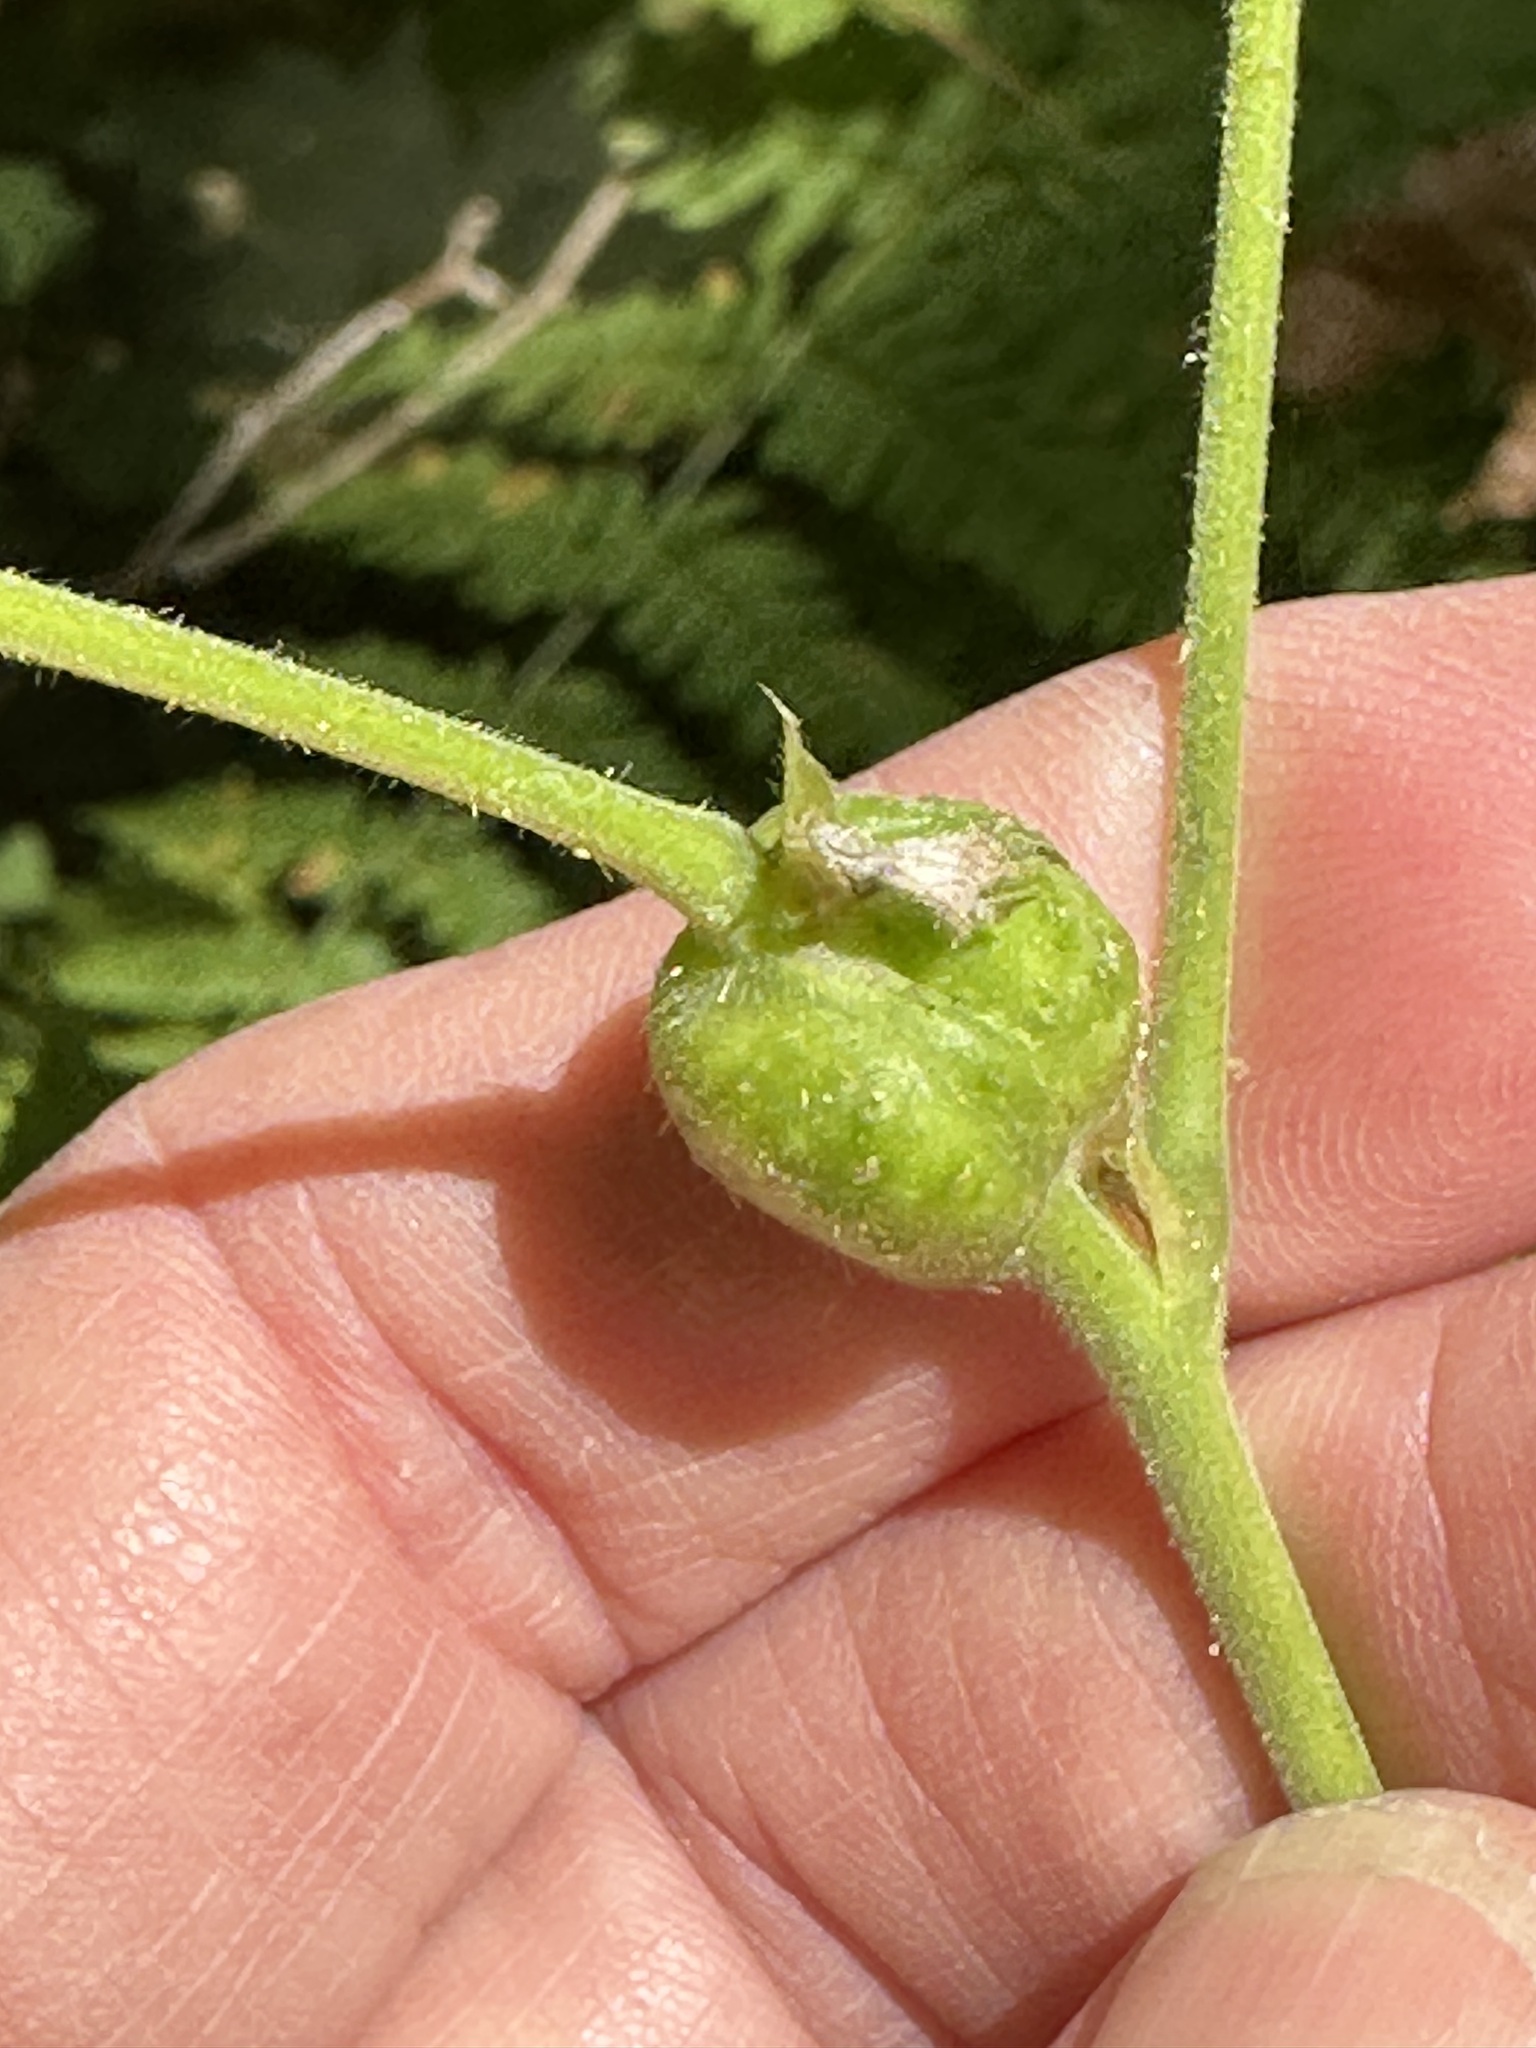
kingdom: Animalia
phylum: Arthropoda
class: Insecta
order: Hymenoptera
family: Cynipidae
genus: Diastrophus
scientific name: Diastrophus
